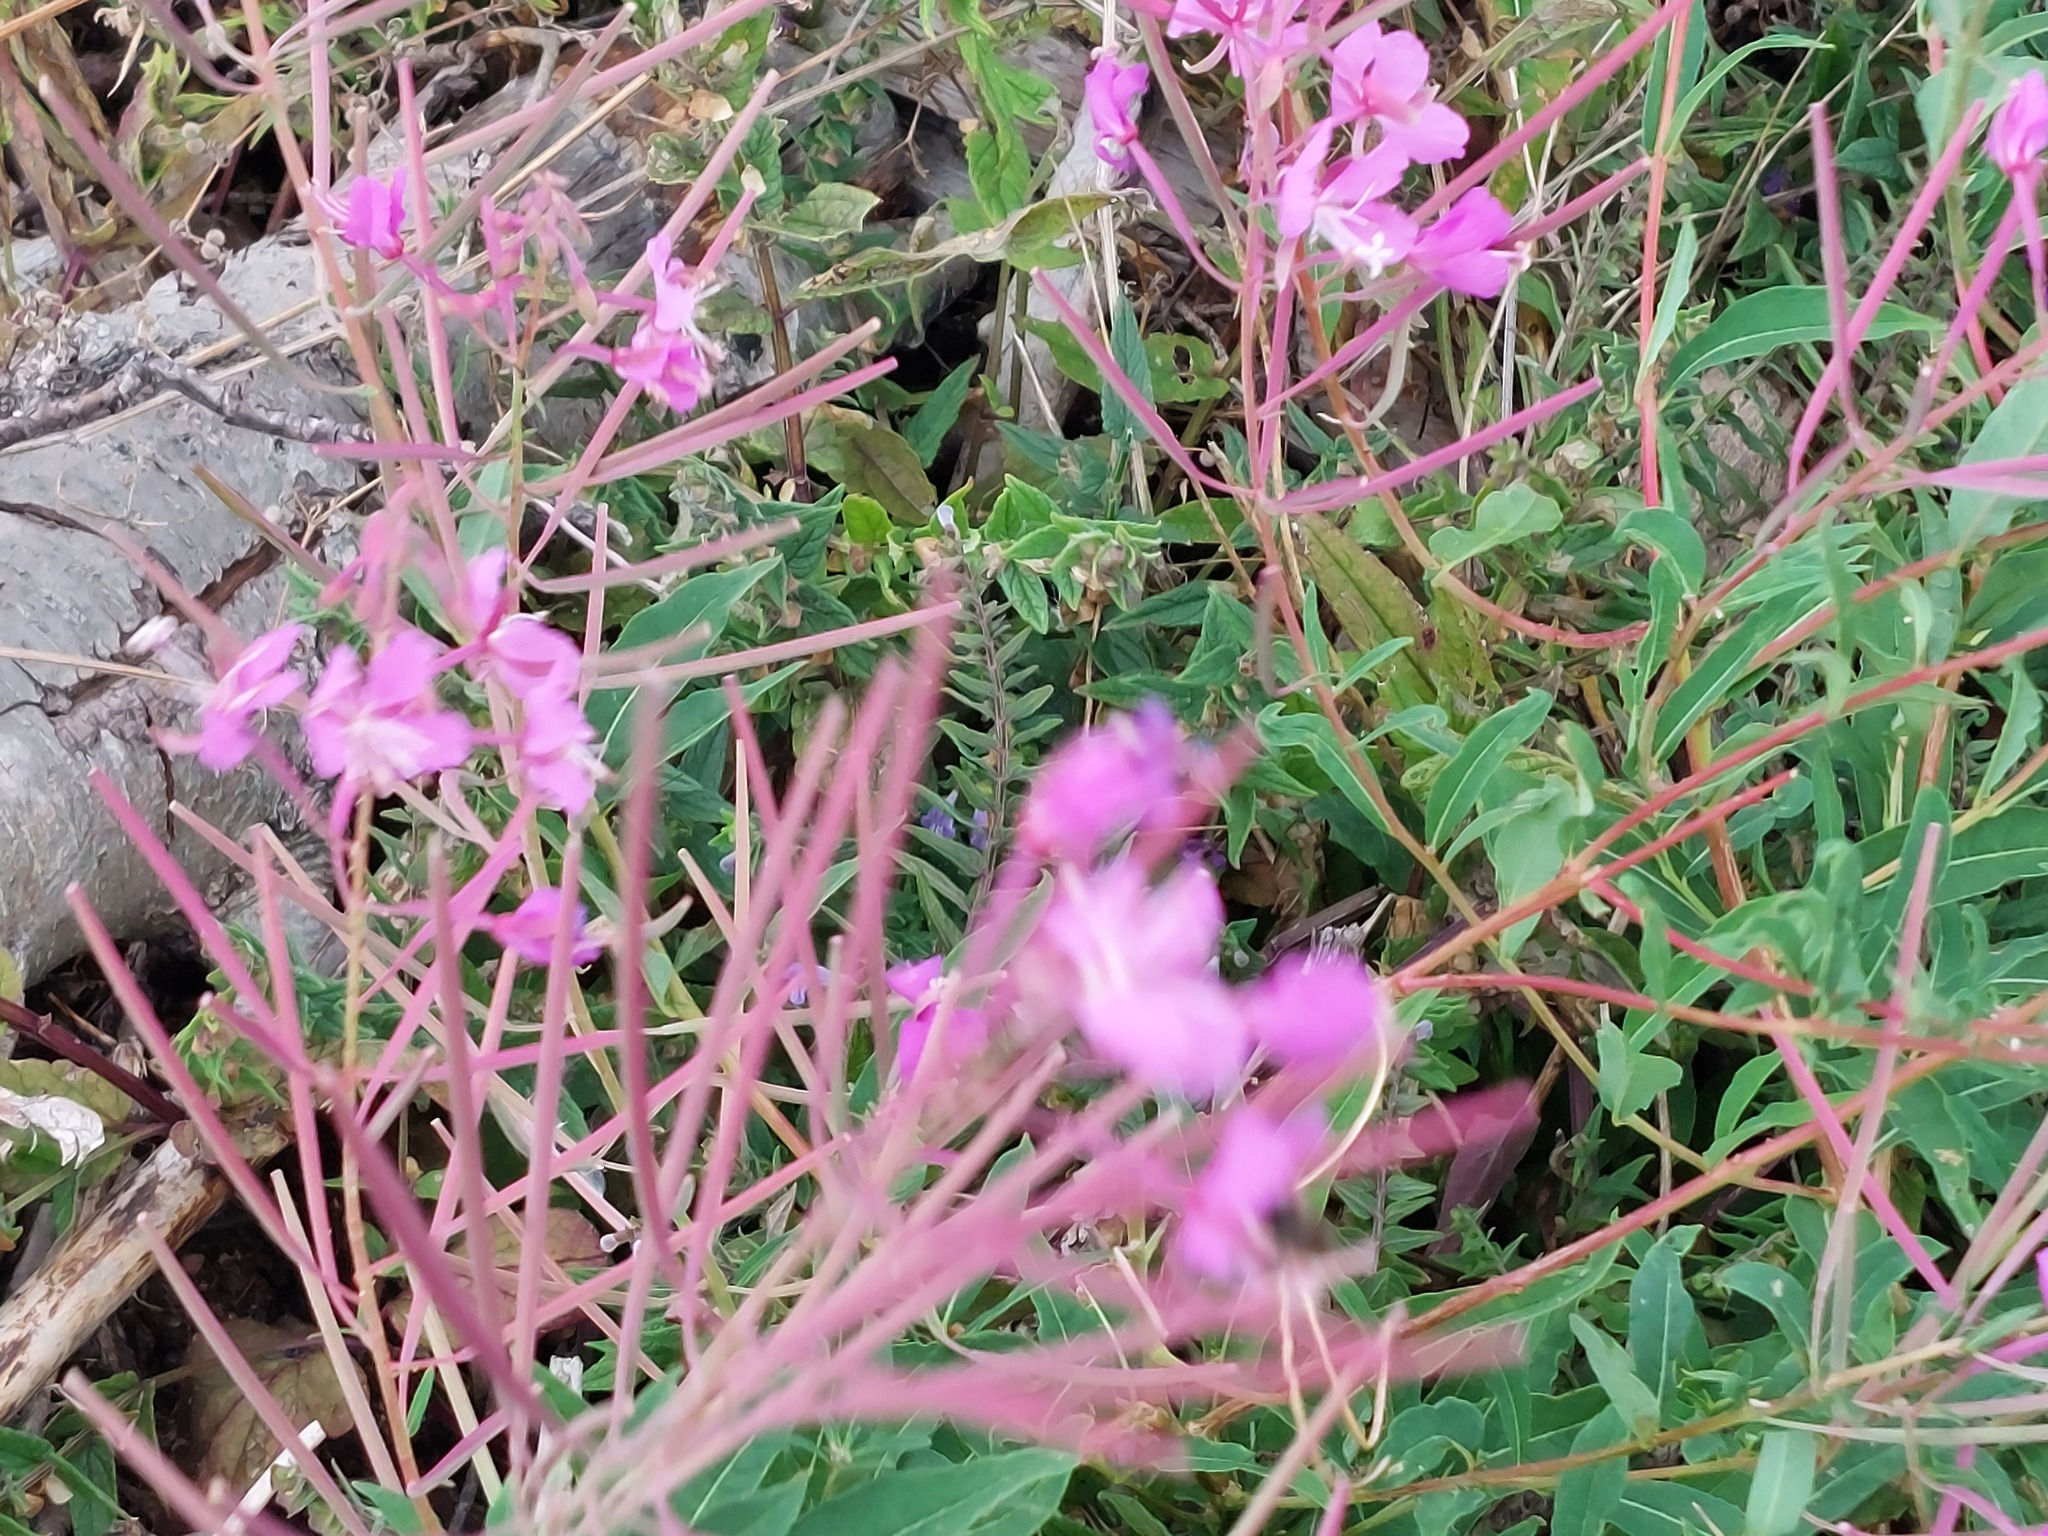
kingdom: Plantae
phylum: Tracheophyta
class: Magnoliopsida
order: Myrtales
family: Onagraceae
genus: Chamaenerion
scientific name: Chamaenerion angustifolium
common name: Fireweed
